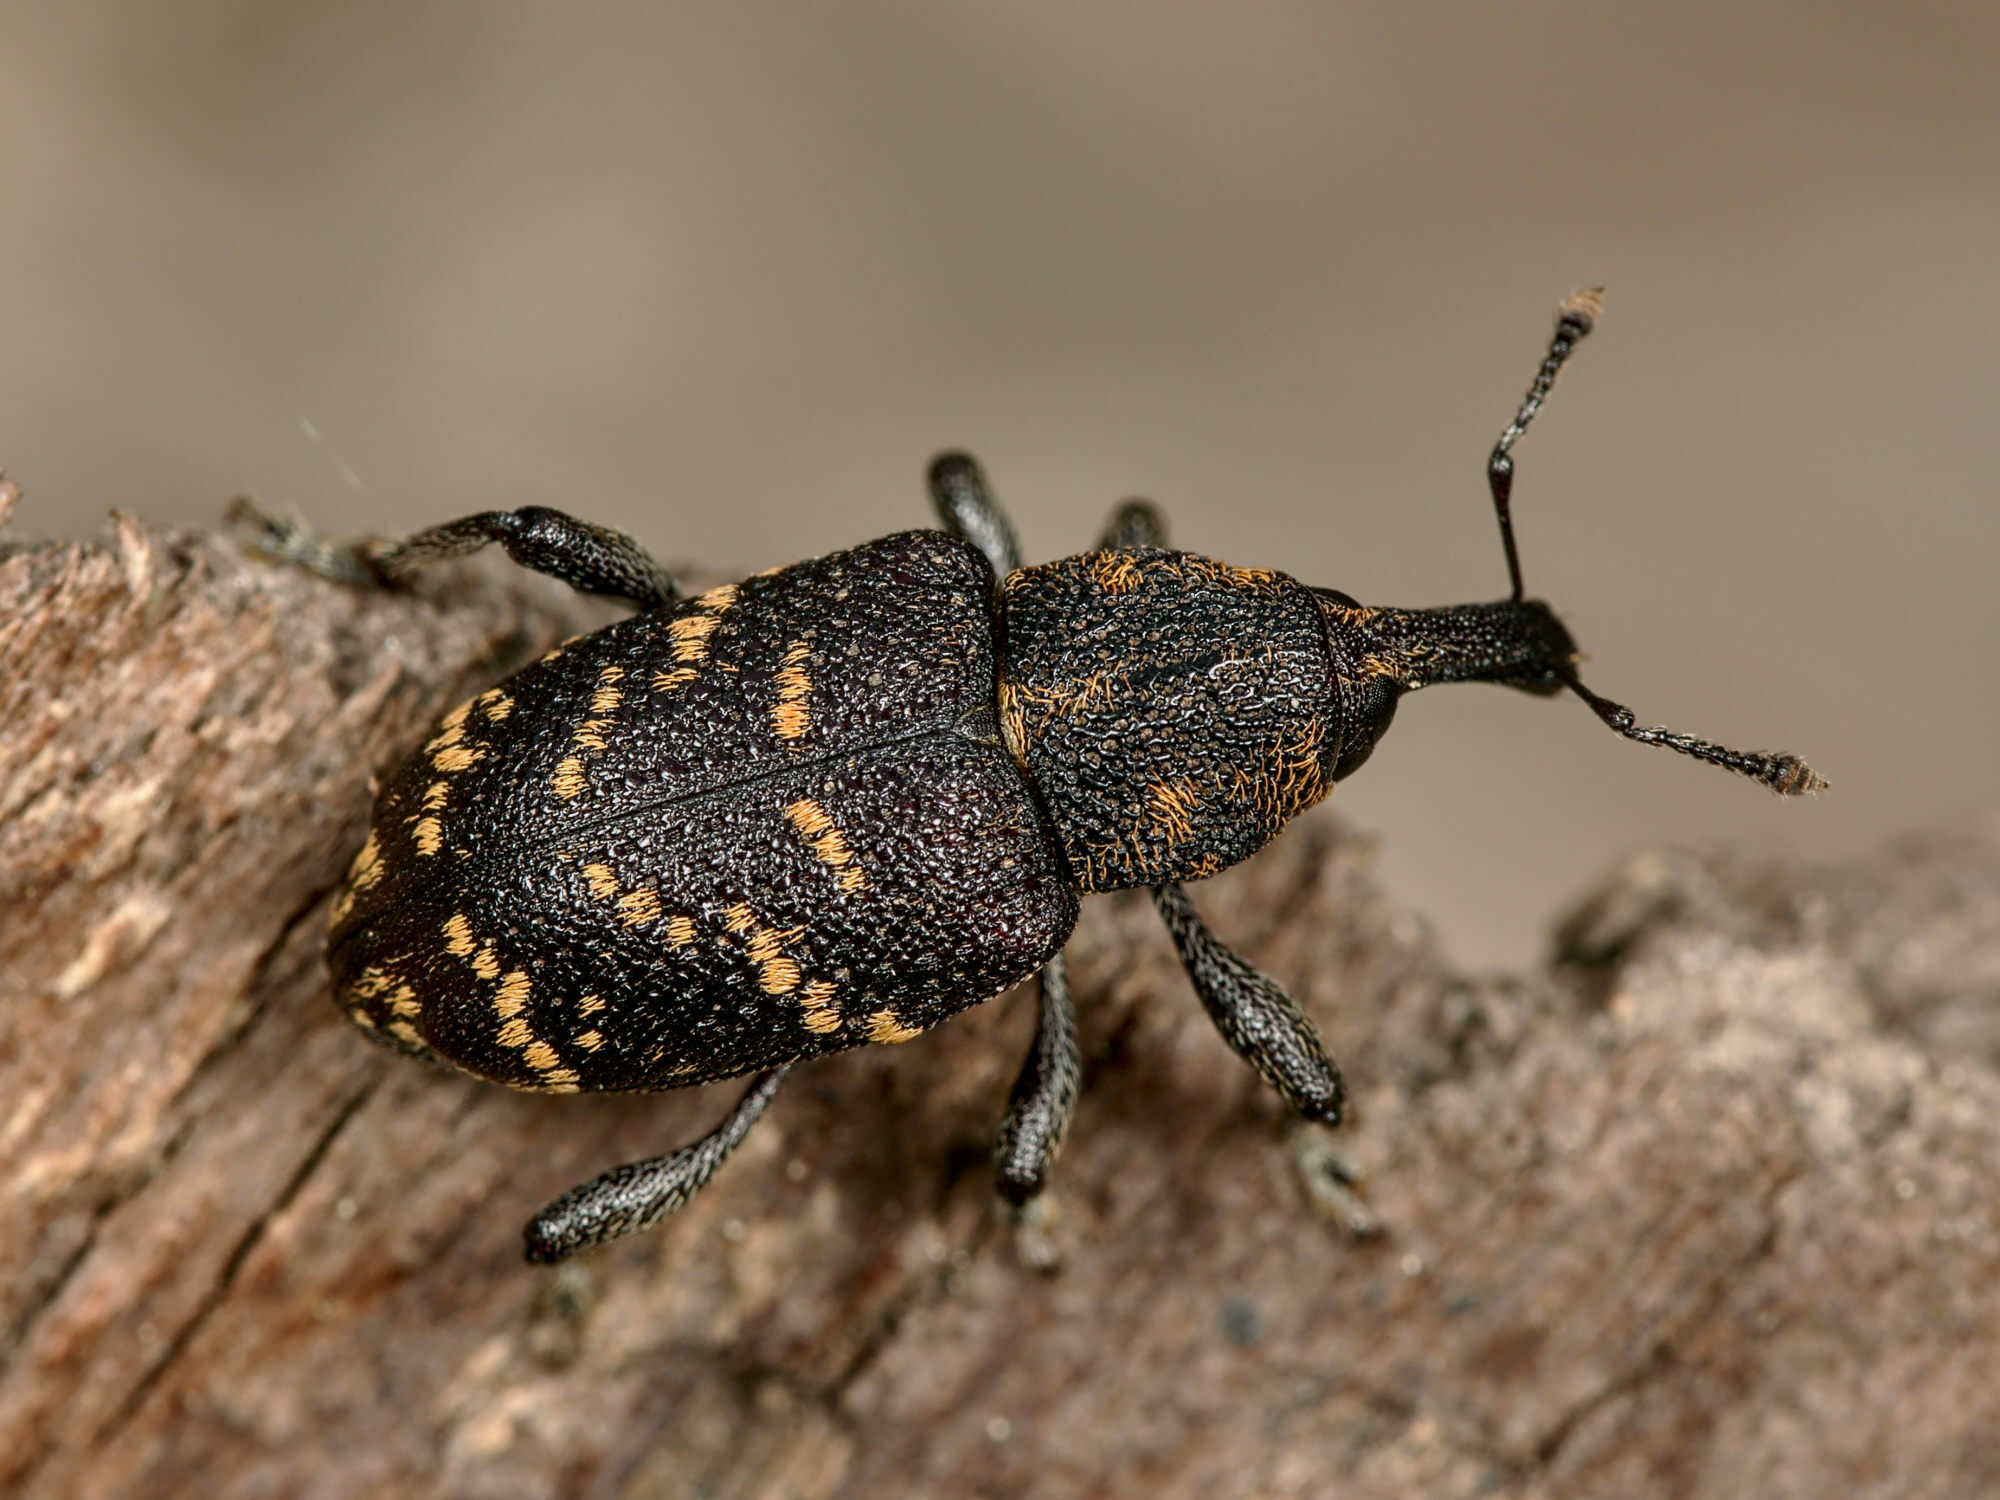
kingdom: Animalia
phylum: Arthropoda
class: Insecta
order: Coleoptera
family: Curculionidae
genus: Hylobius
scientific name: Hylobius abietis
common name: Large pine weevil
